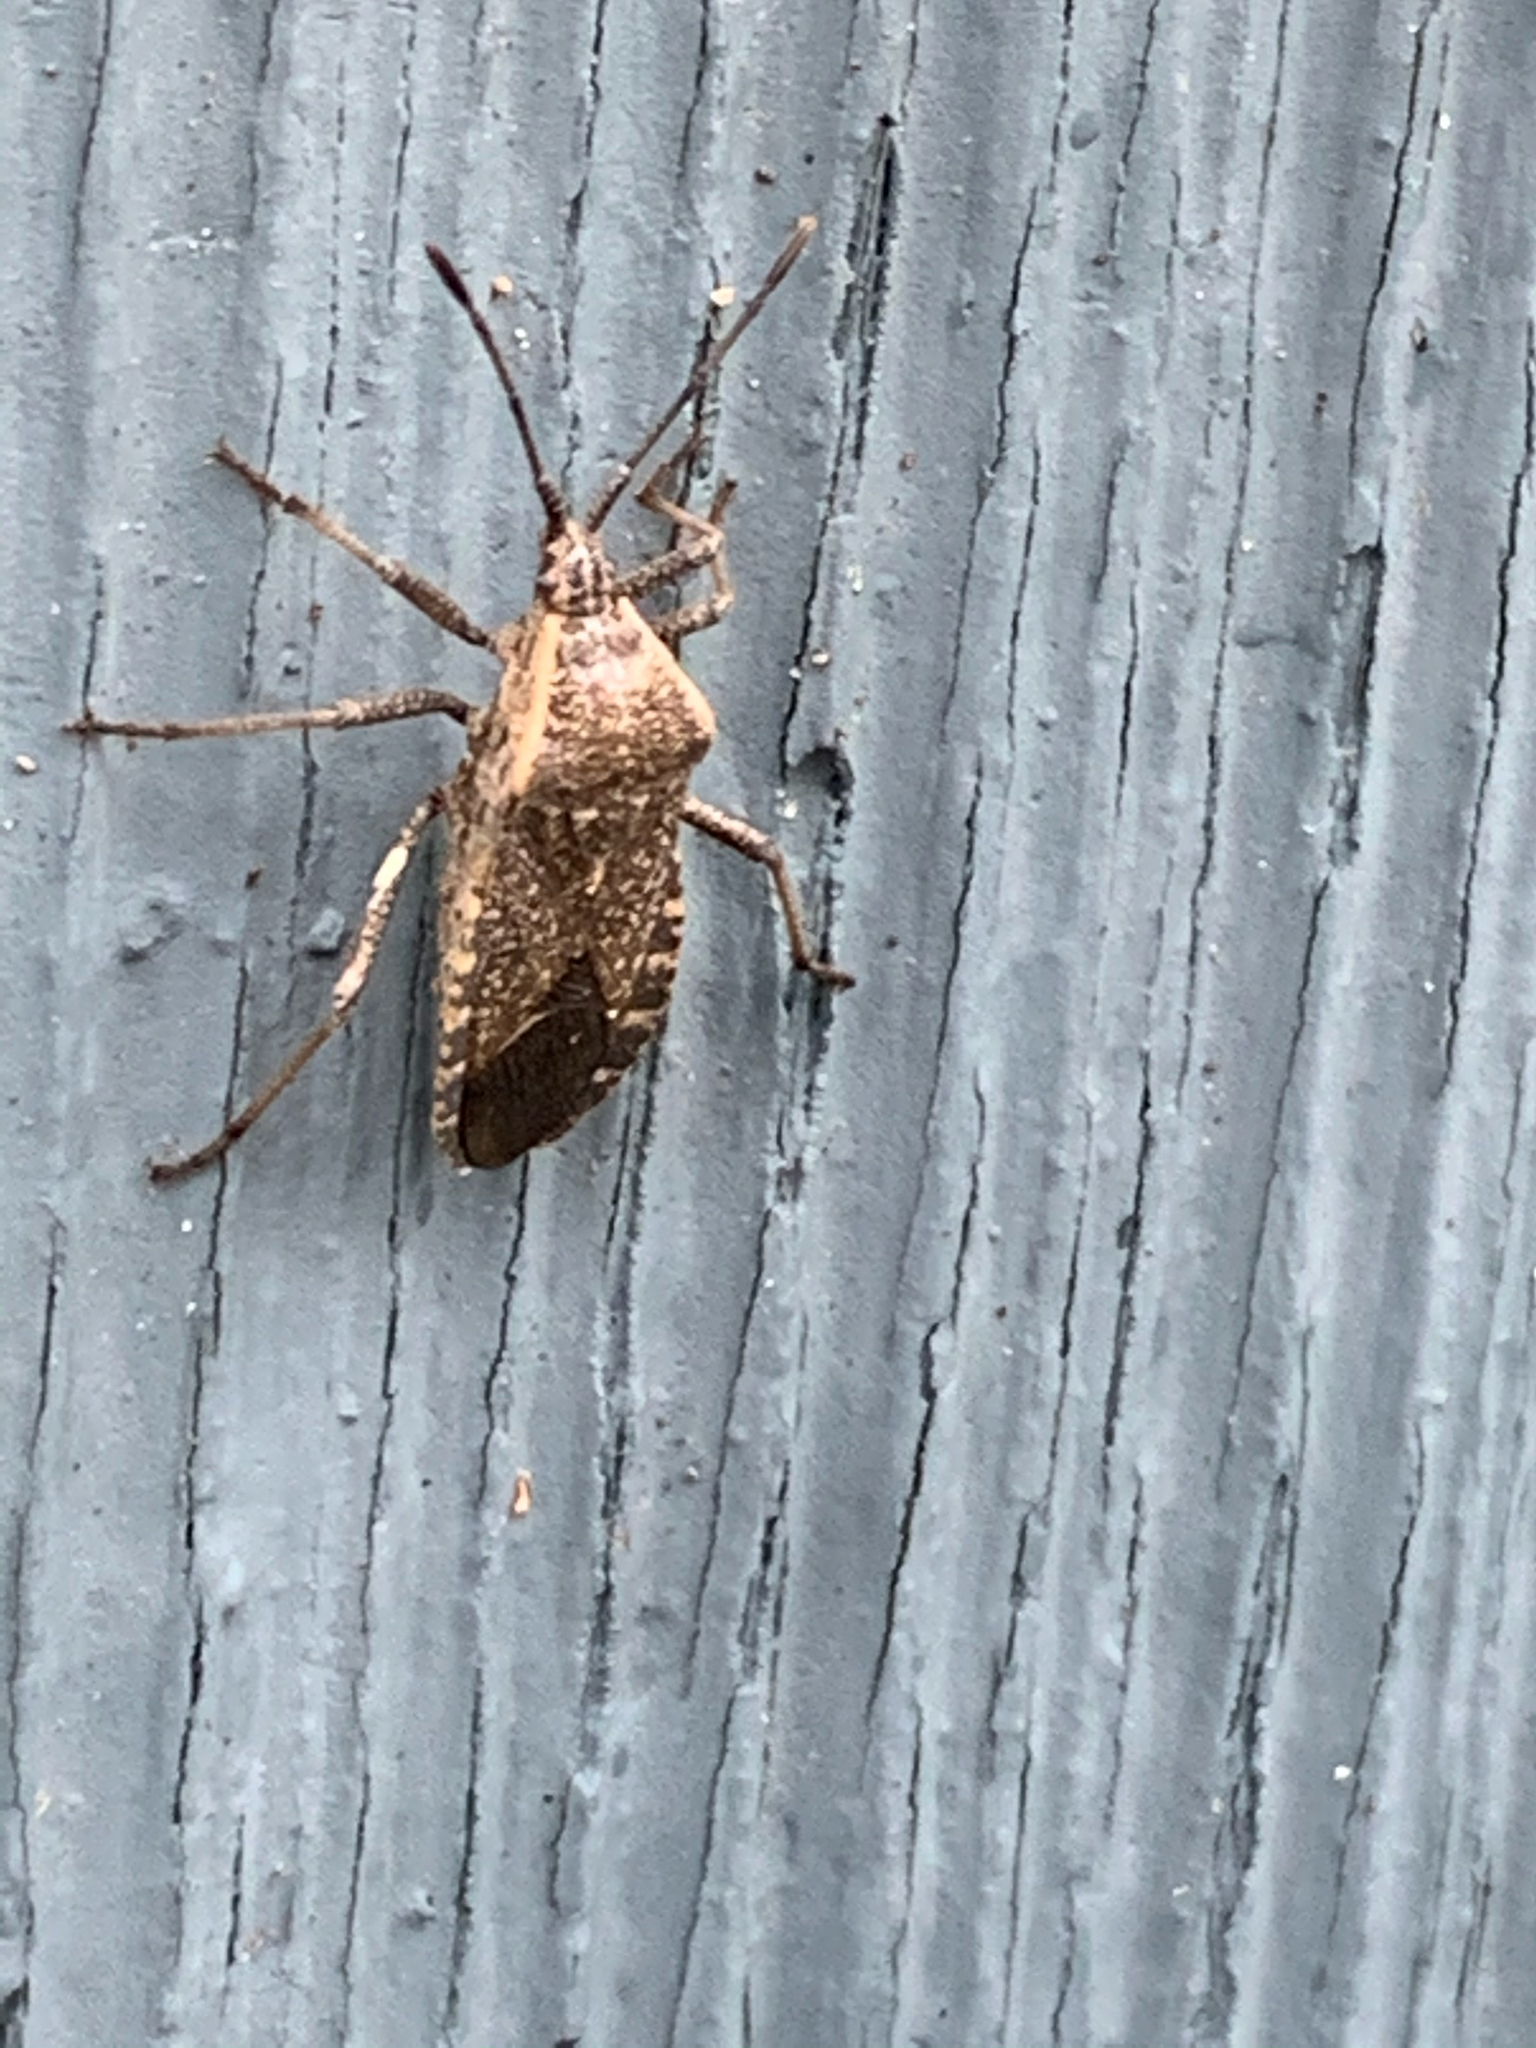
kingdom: Animalia
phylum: Arthropoda
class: Insecta
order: Hemiptera
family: Coreidae
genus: Anasa
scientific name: Anasa tristis
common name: Squash bug
